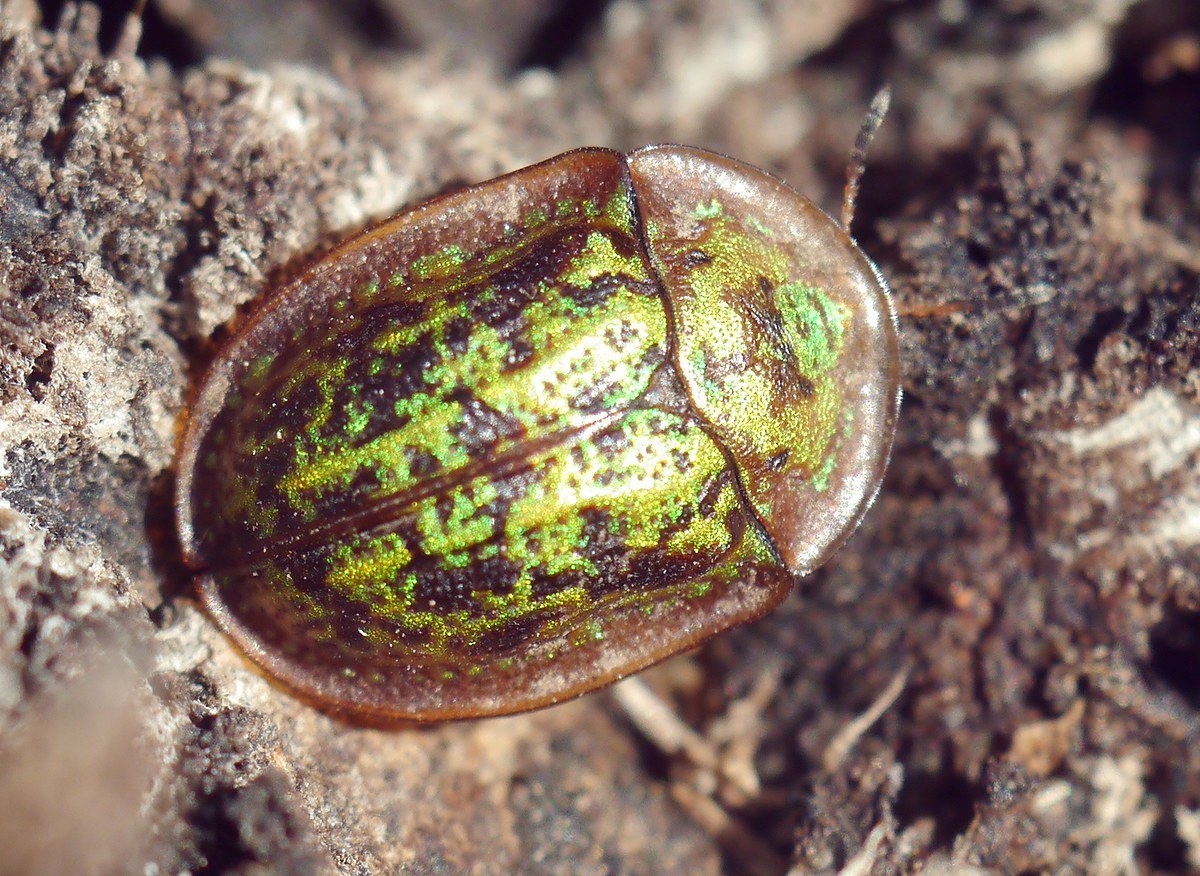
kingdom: Animalia
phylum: Arthropoda
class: Insecta
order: Coleoptera
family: Chrysomelidae
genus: Cassida
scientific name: Cassida canaliculata
